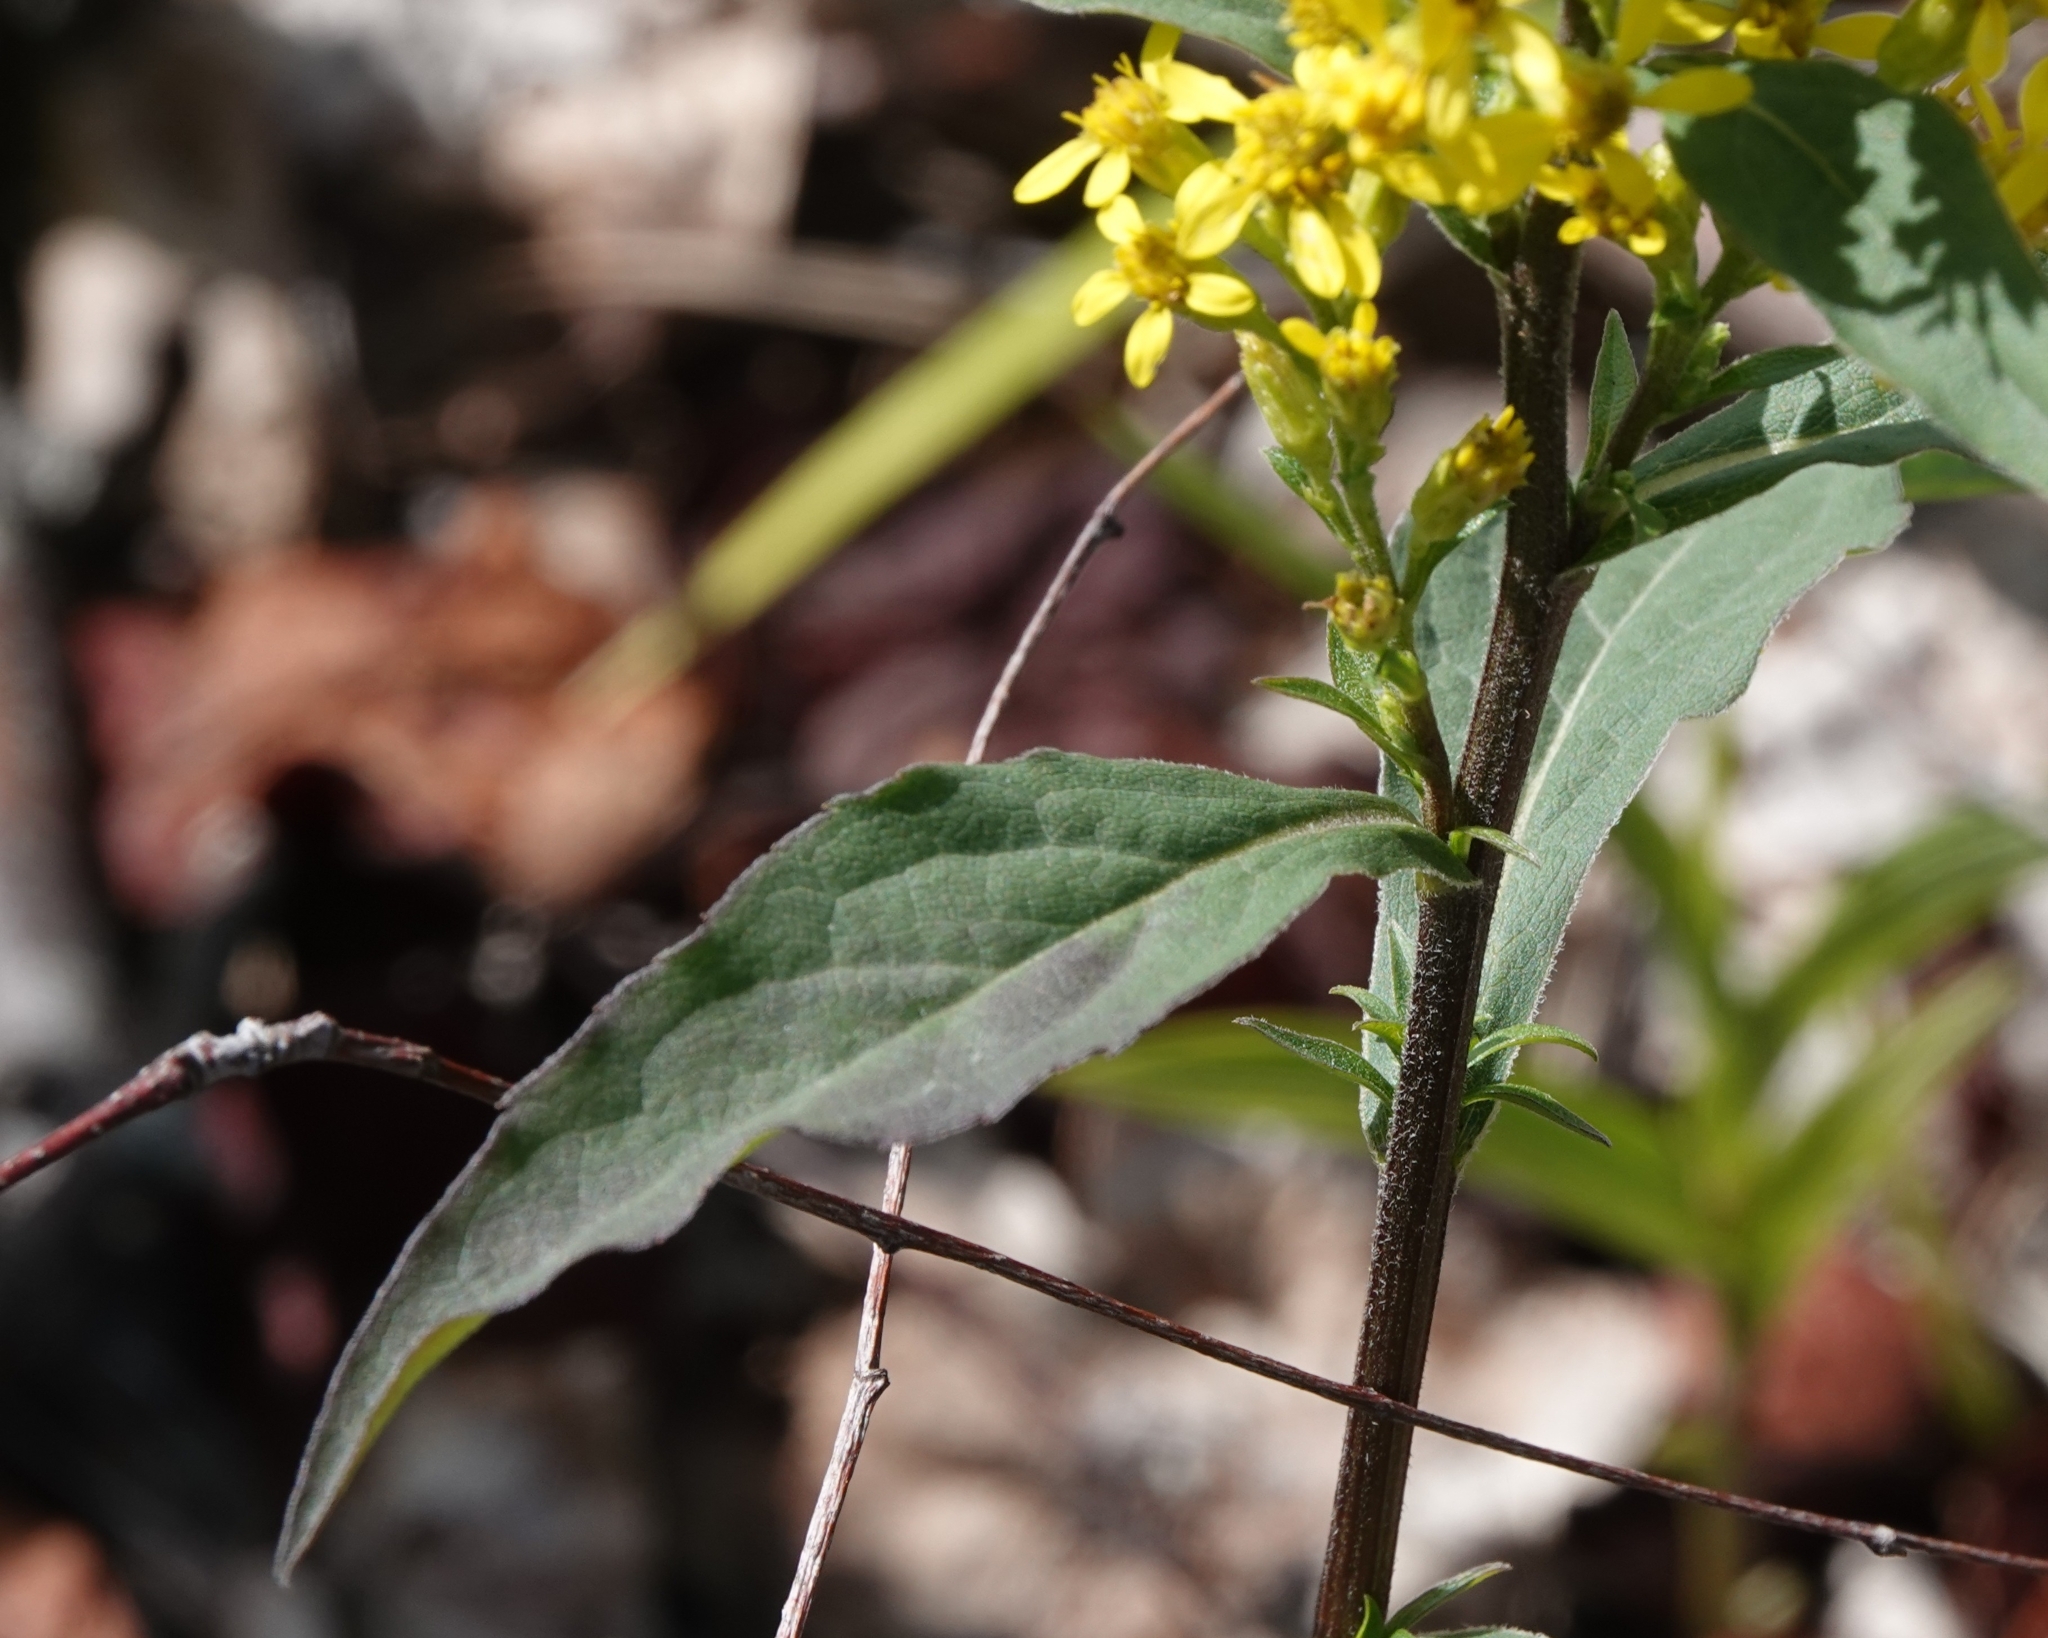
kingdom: Plantae
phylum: Tracheophyta
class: Magnoliopsida
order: Asterales
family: Asteraceae
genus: Solidago
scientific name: Solidago virgaurea
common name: Goldenrod
